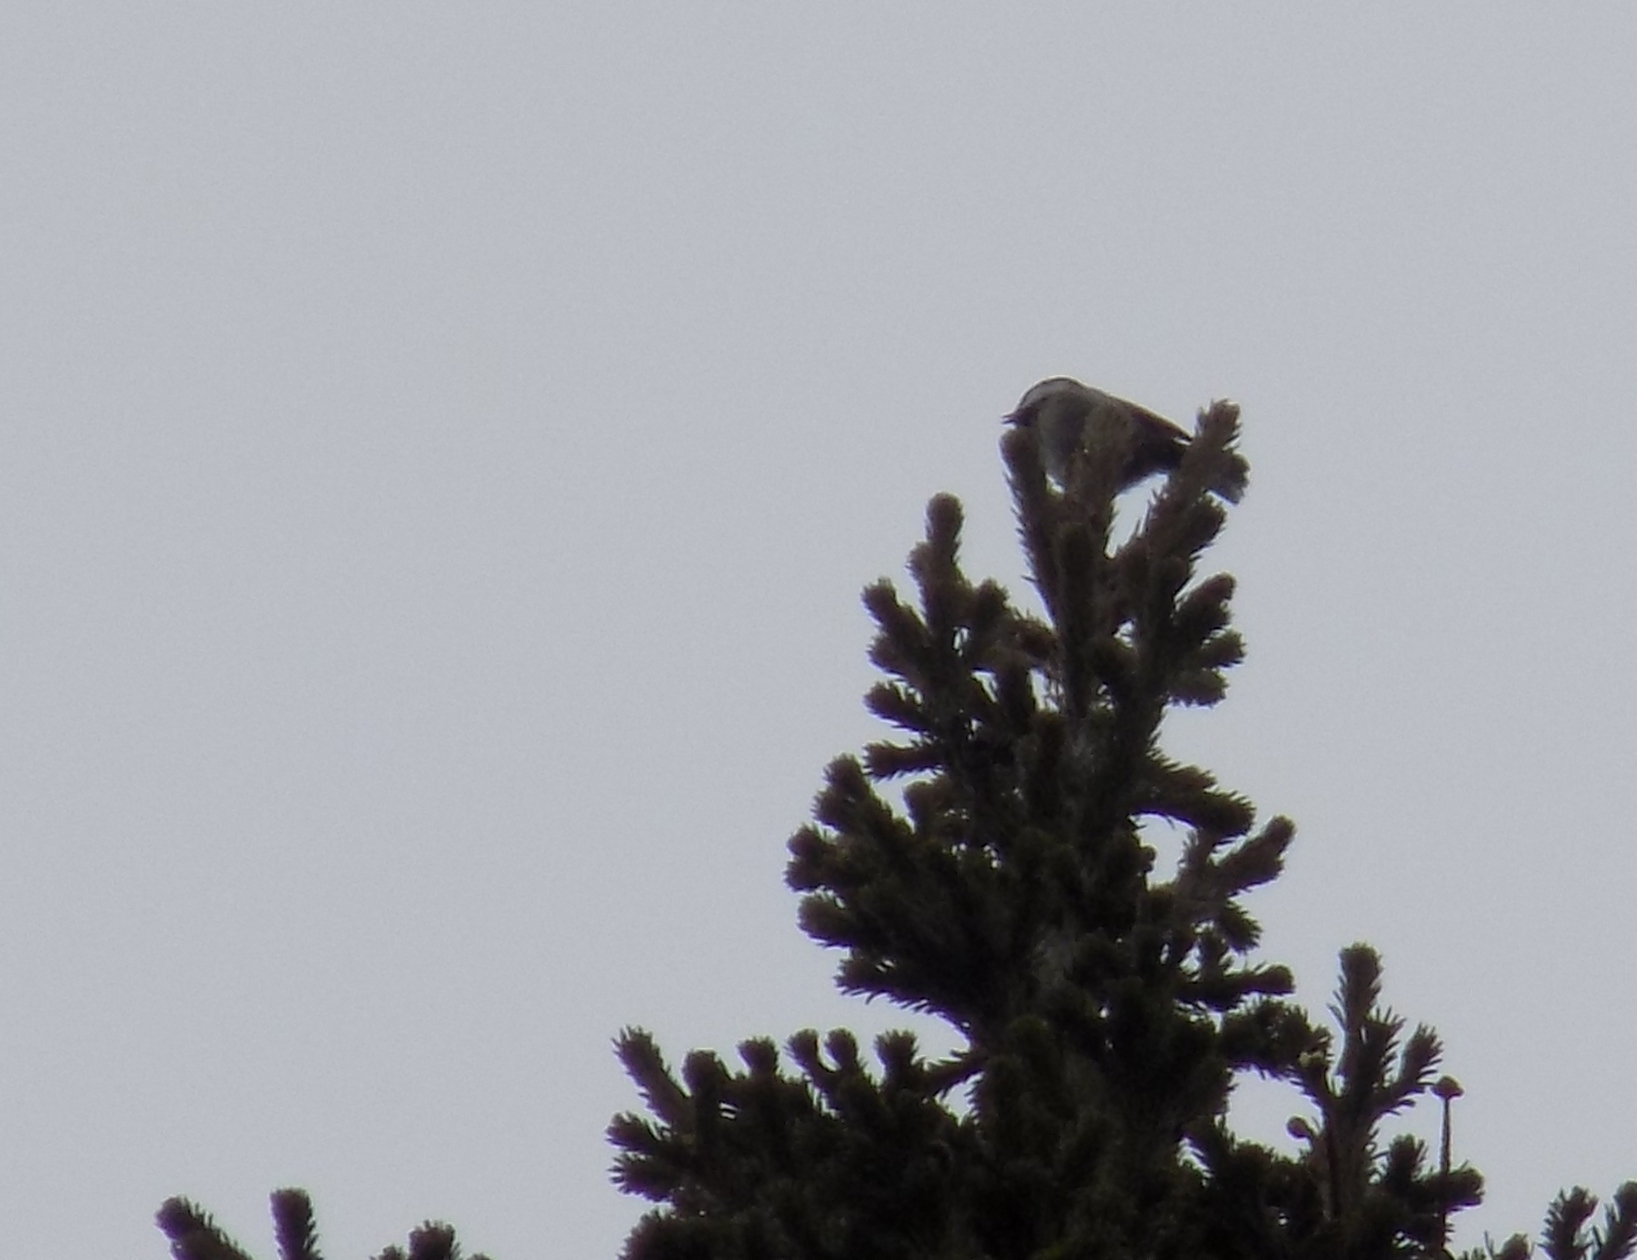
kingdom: Animalia
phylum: Chordata
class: Aves
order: Passeriformes
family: Paridae
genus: Periparus
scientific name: Periparus ater
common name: Coal tit
